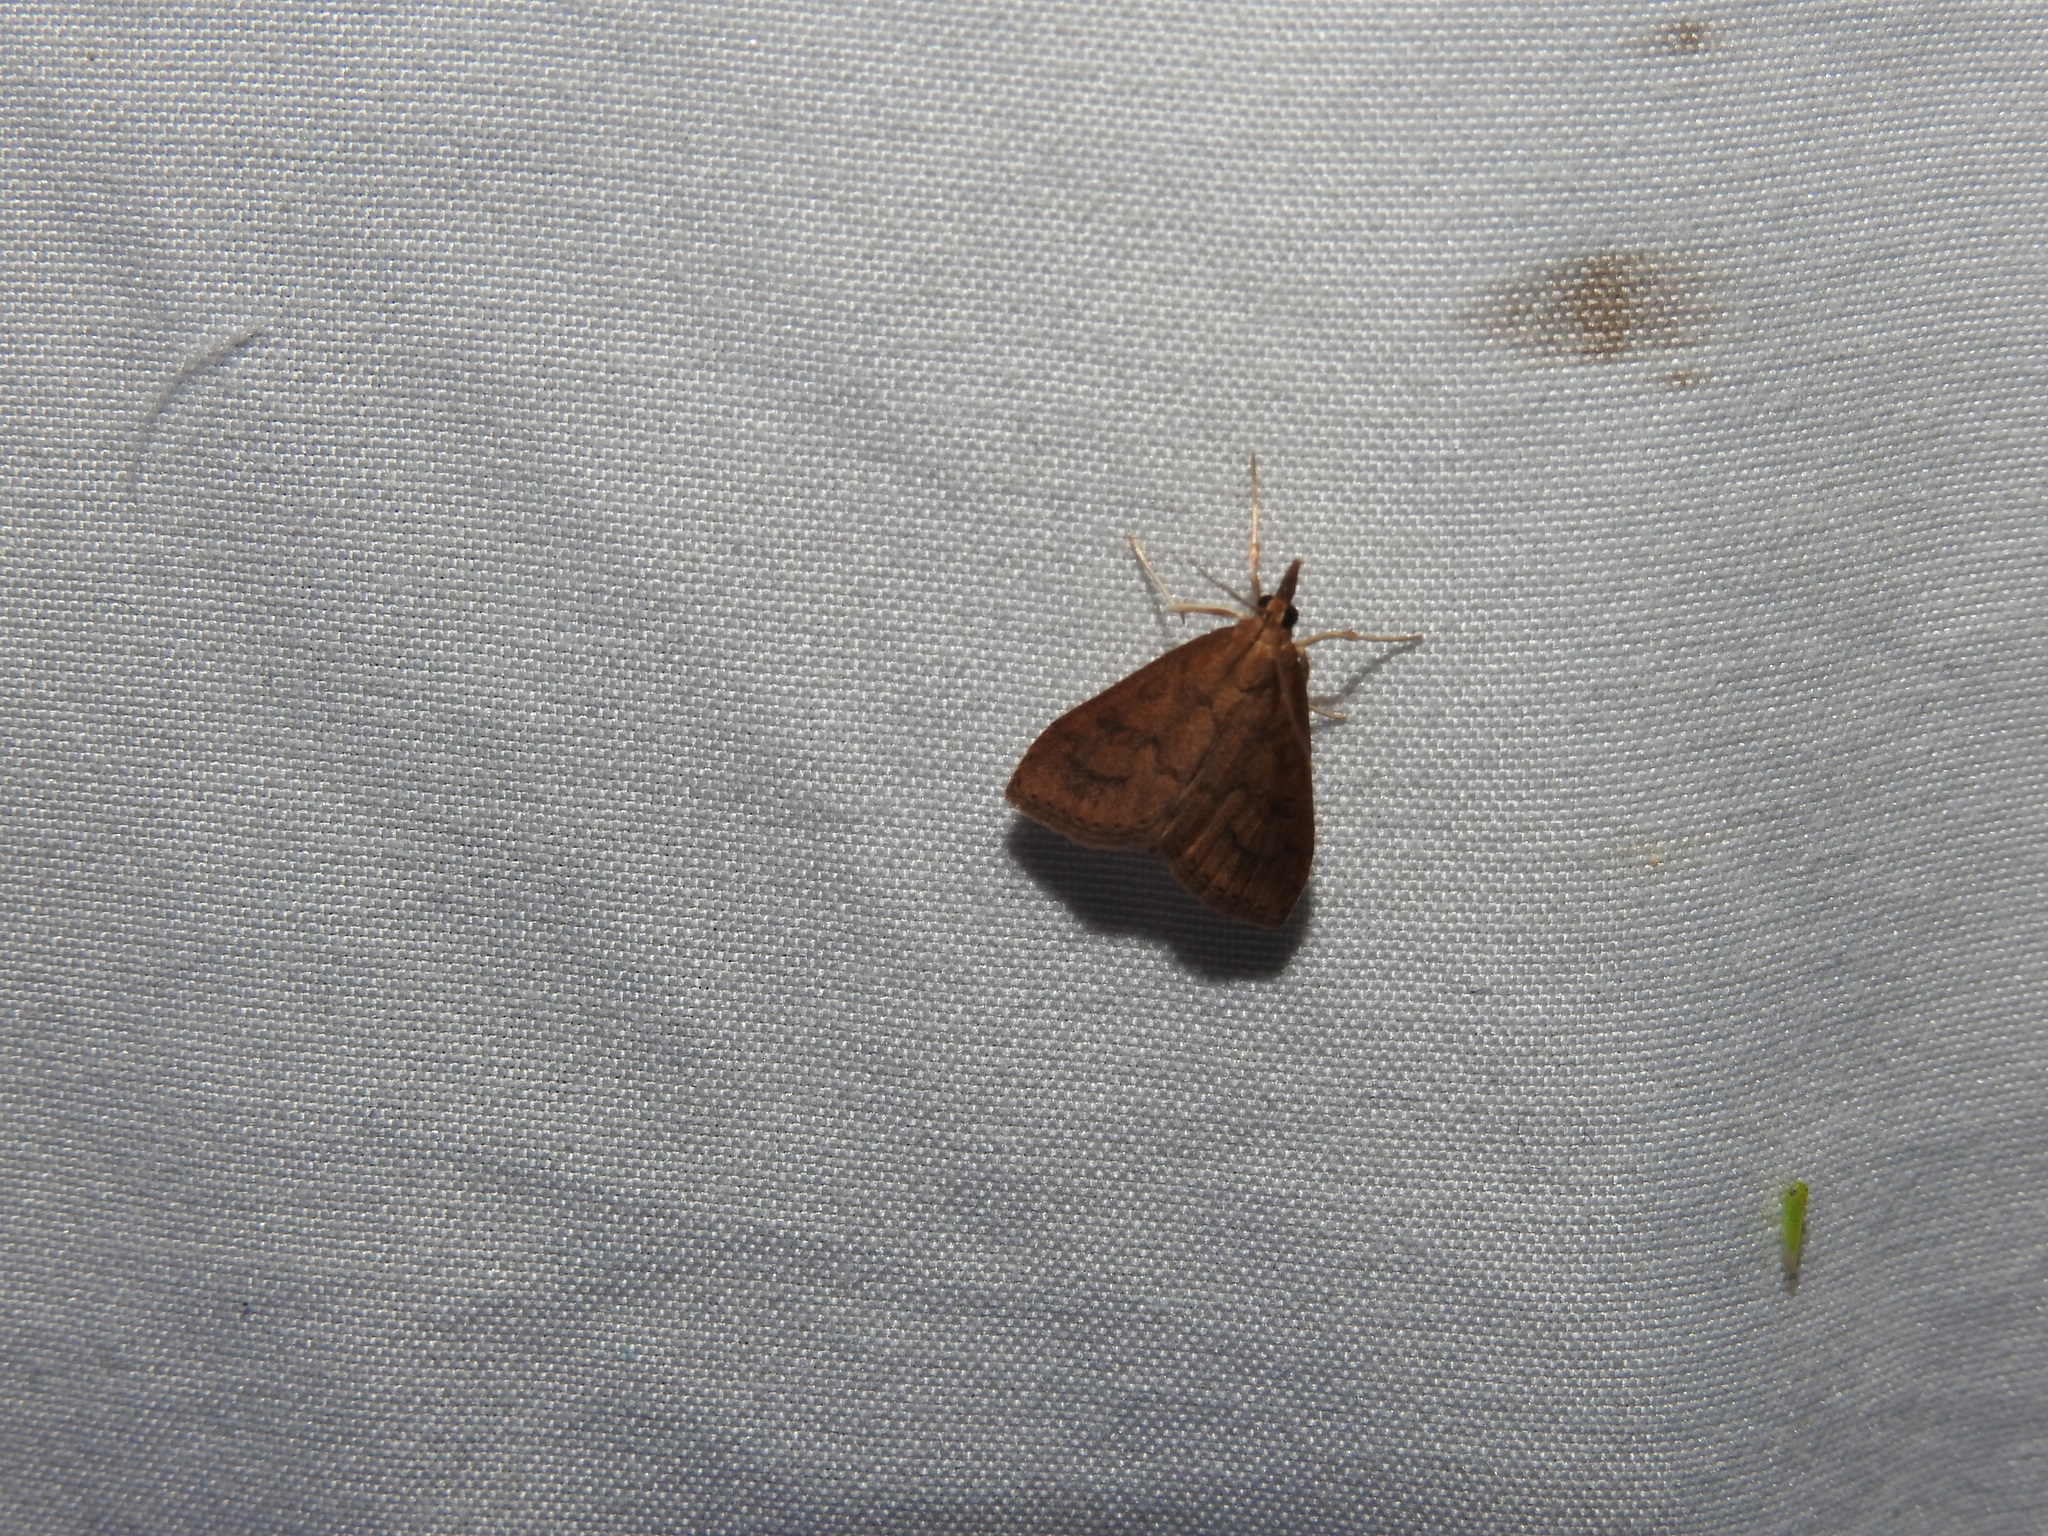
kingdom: Animalia
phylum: Arthropoda
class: Insecta
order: Lepidoptera
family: Crambidae
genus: Udea
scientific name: Udea rubigalis
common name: Celery leaftier moth
